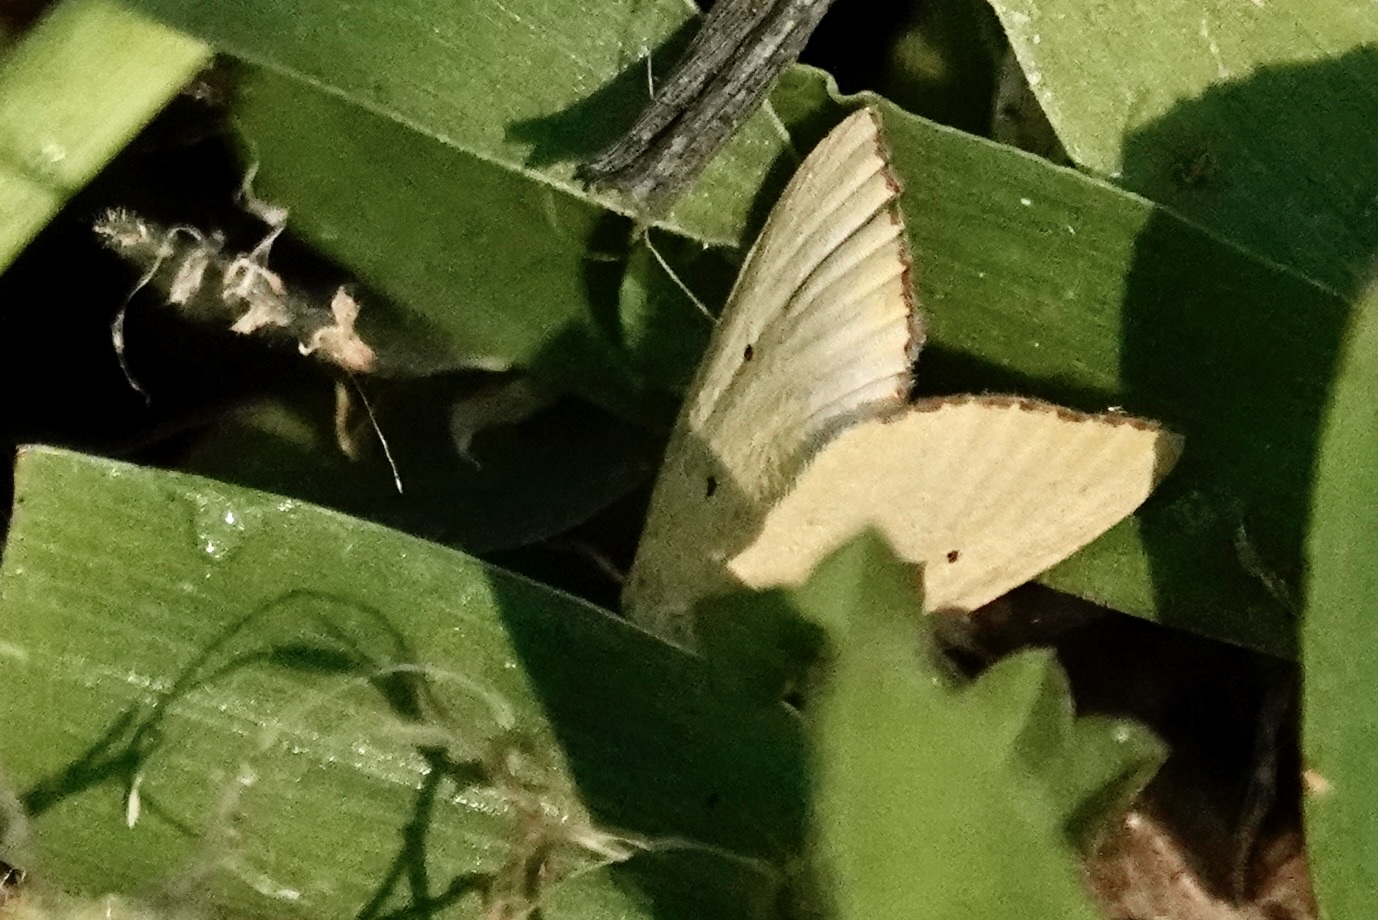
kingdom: Animalia
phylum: Arthropoda
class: Insecta
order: Lepidoptera
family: Noctuidae
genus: Marimatha
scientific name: Marimatha nigrofimbria
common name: Black-bordered lemon moth
